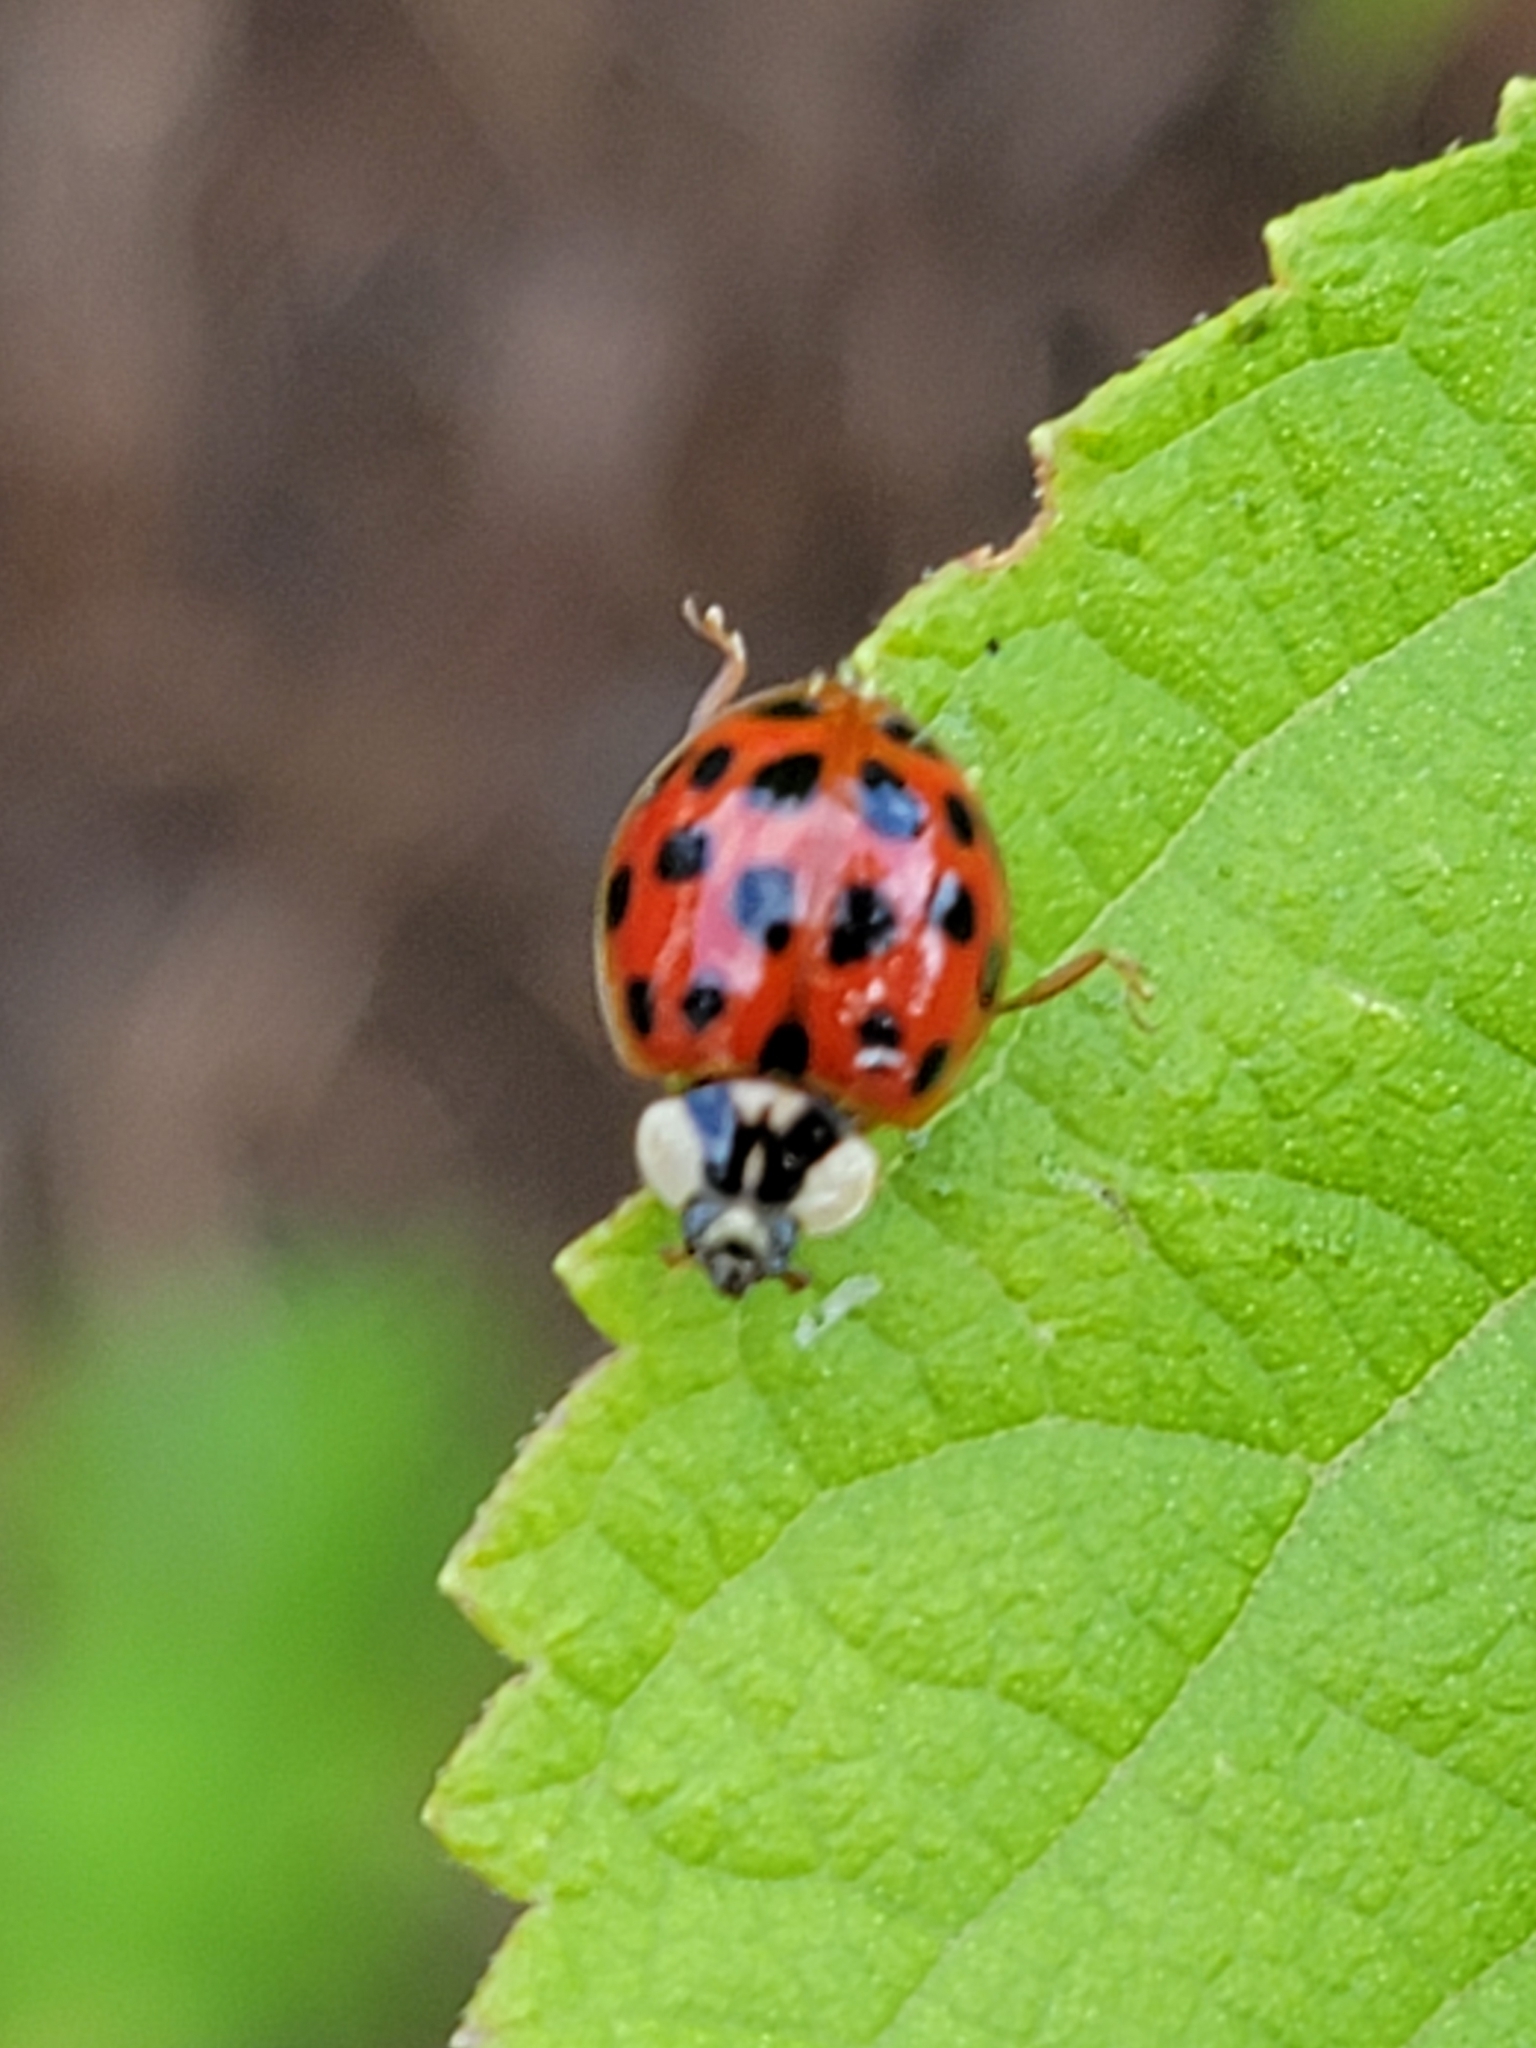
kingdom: Animalia
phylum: Arthropoda
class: Insecta
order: Coleoptera
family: Coccinellidae
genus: Harmonia
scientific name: Harmonia axyridis
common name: Harlequin ladybird
